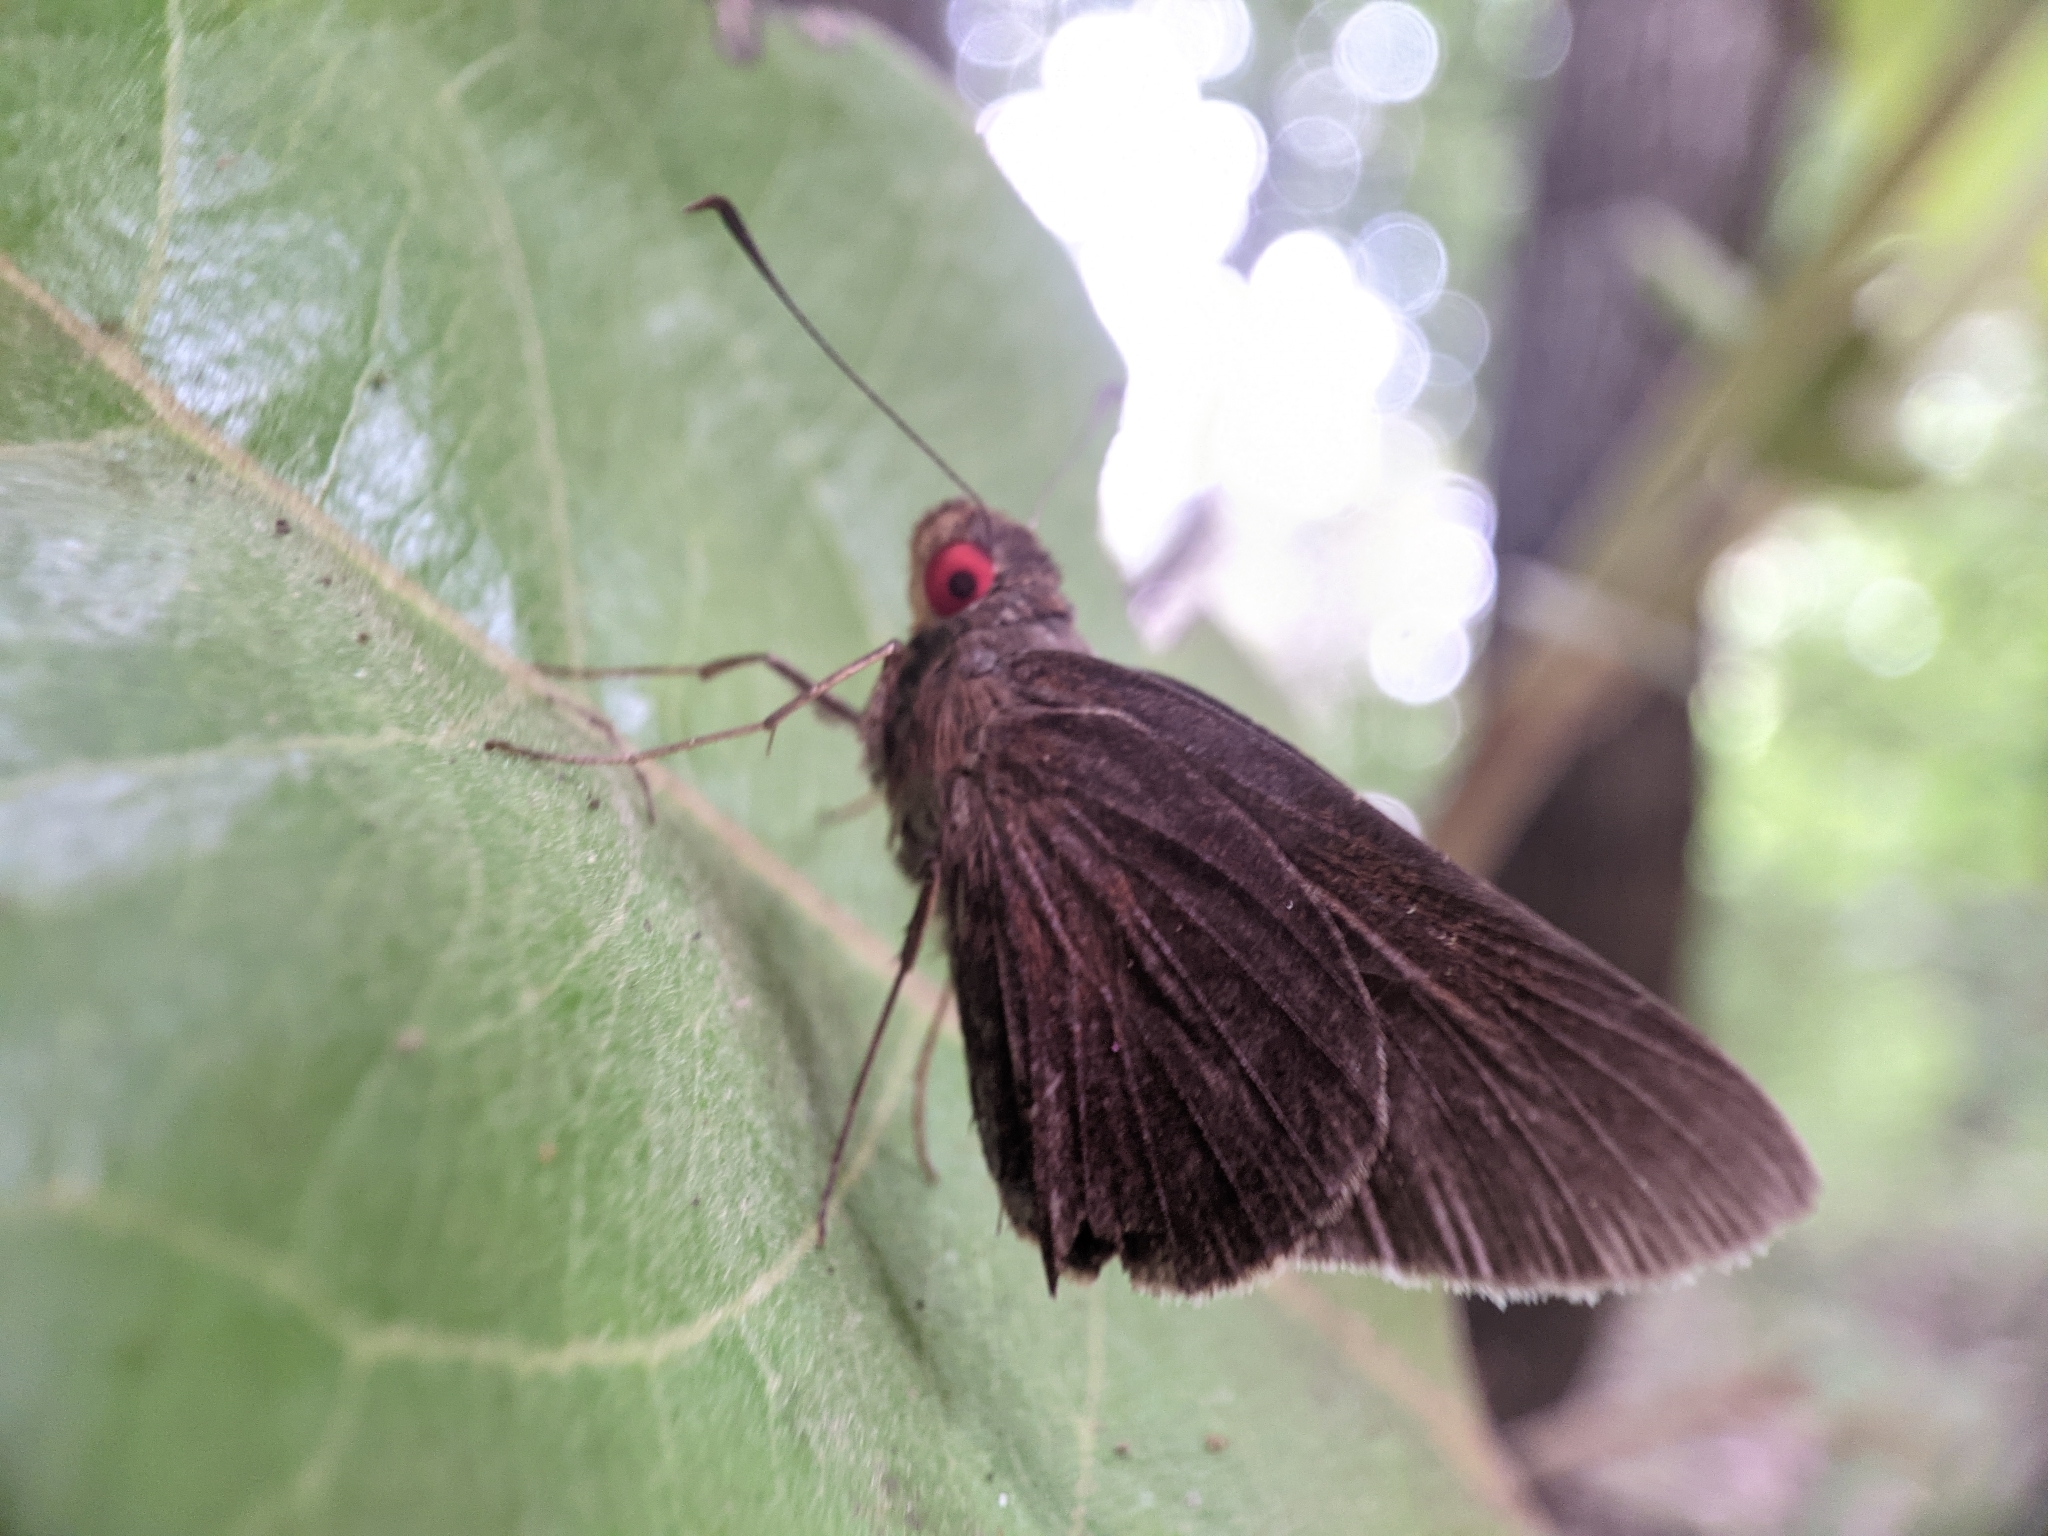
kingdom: Animalia
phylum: Arthropoda
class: Insecta
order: Lepidoptera
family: Hesperiidae
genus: Matapa
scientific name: Matapa aria
